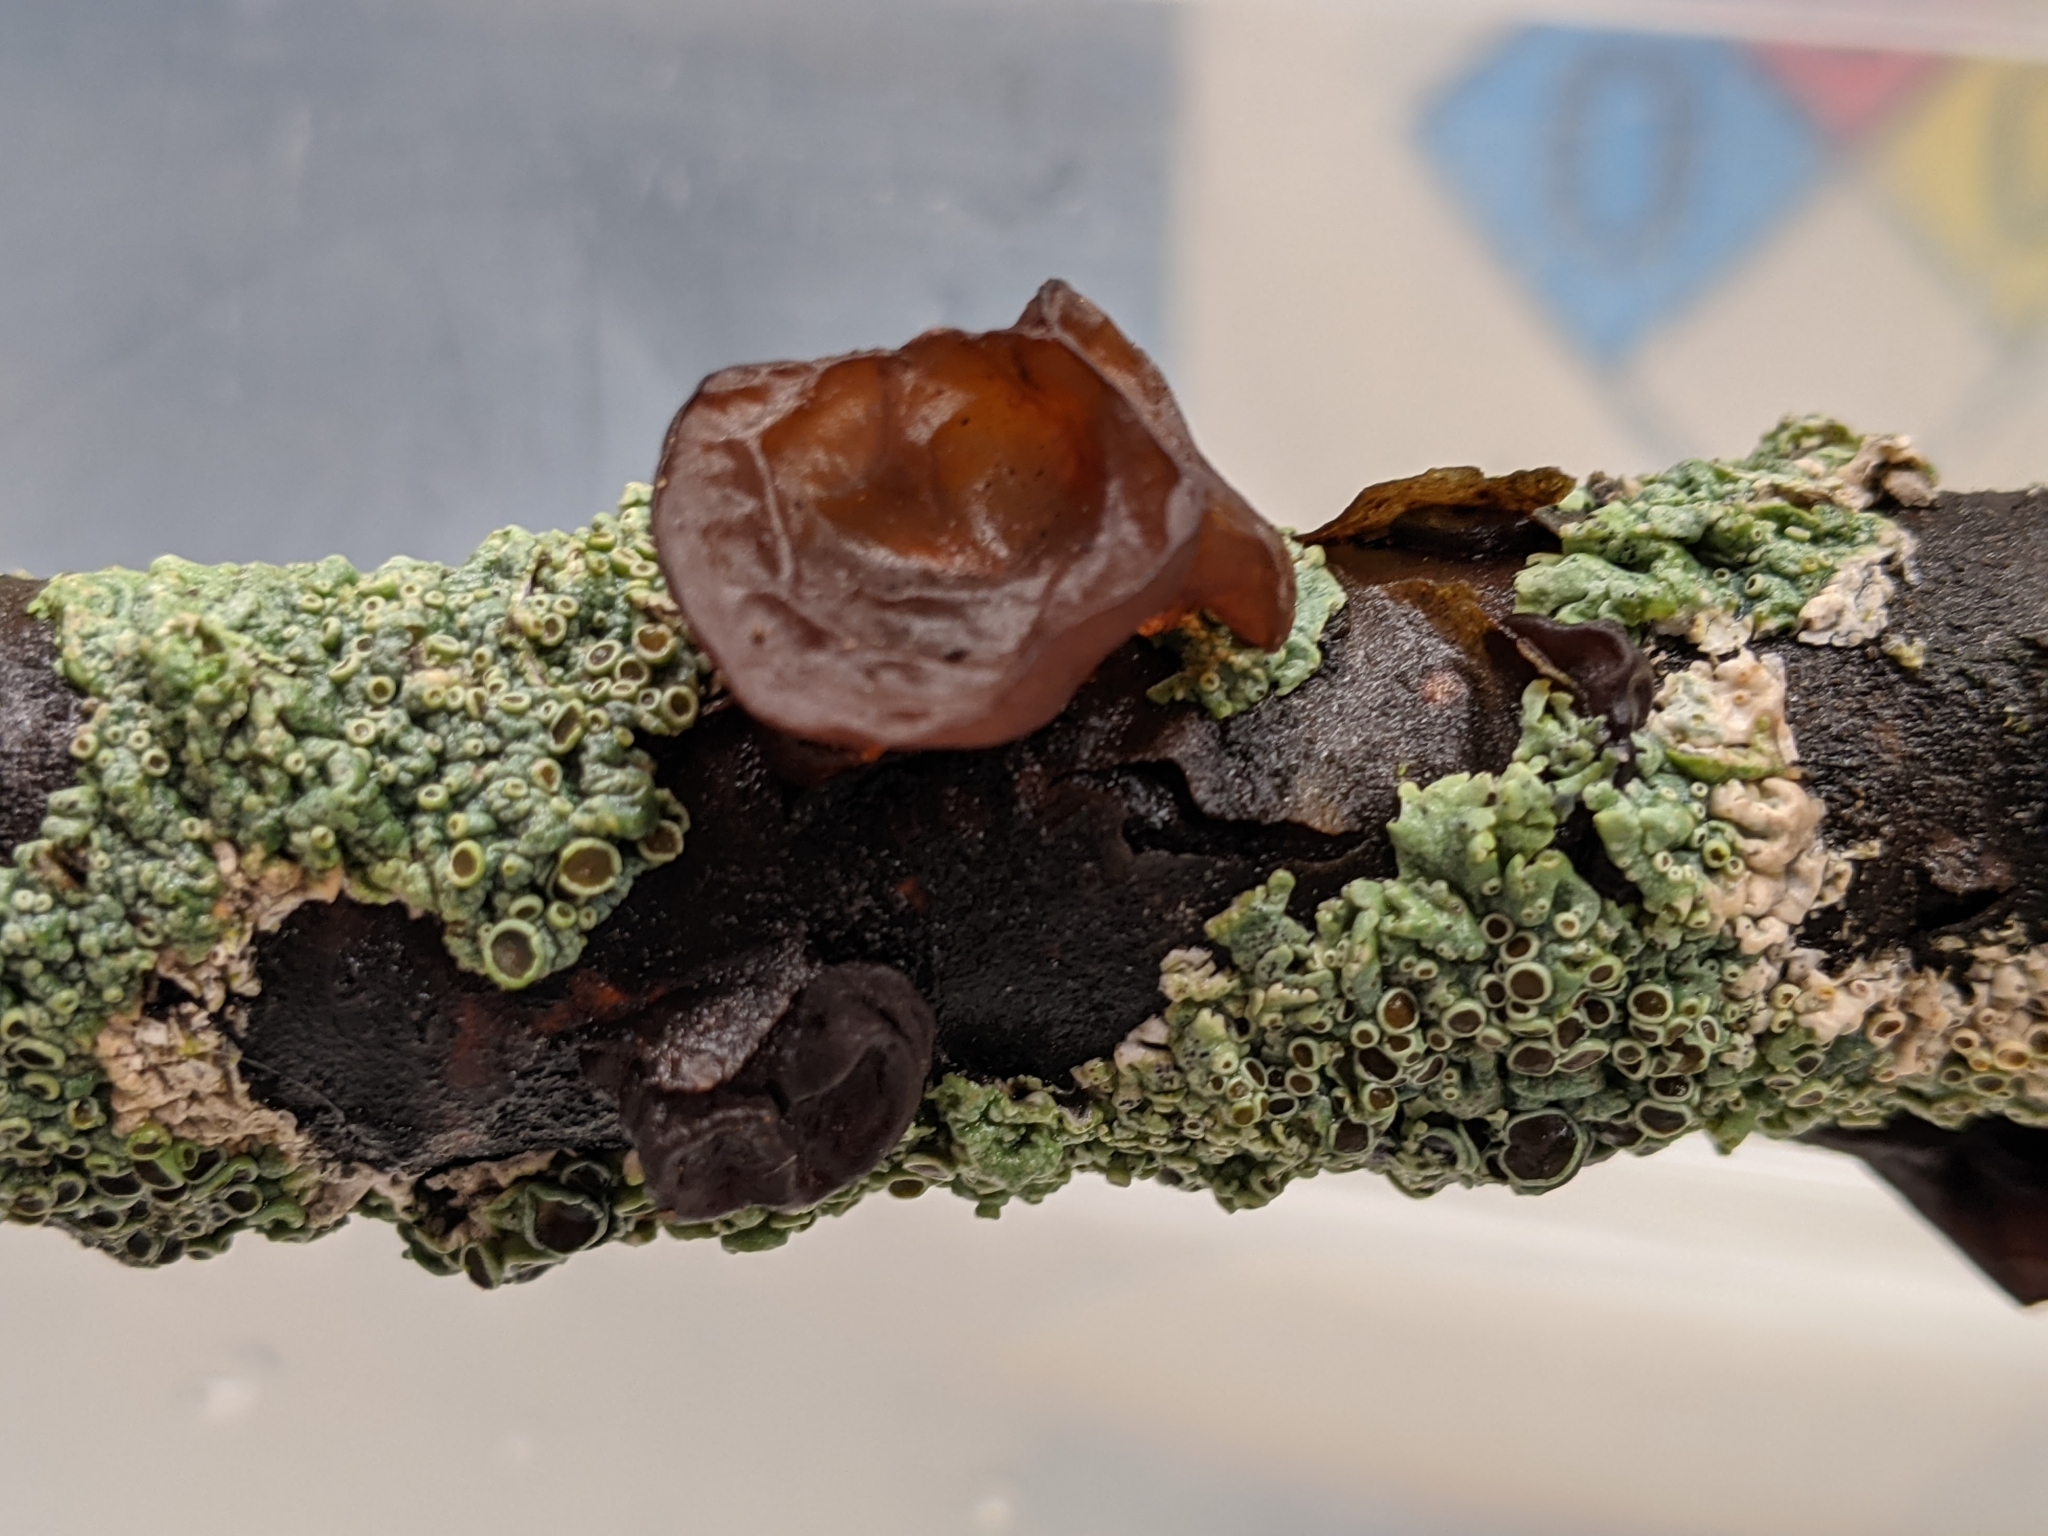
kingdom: Fungi
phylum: Basidiomycota
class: Agaricomycetes
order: Auriculariales
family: Auriculariaceae
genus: Exidia
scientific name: Exidia
